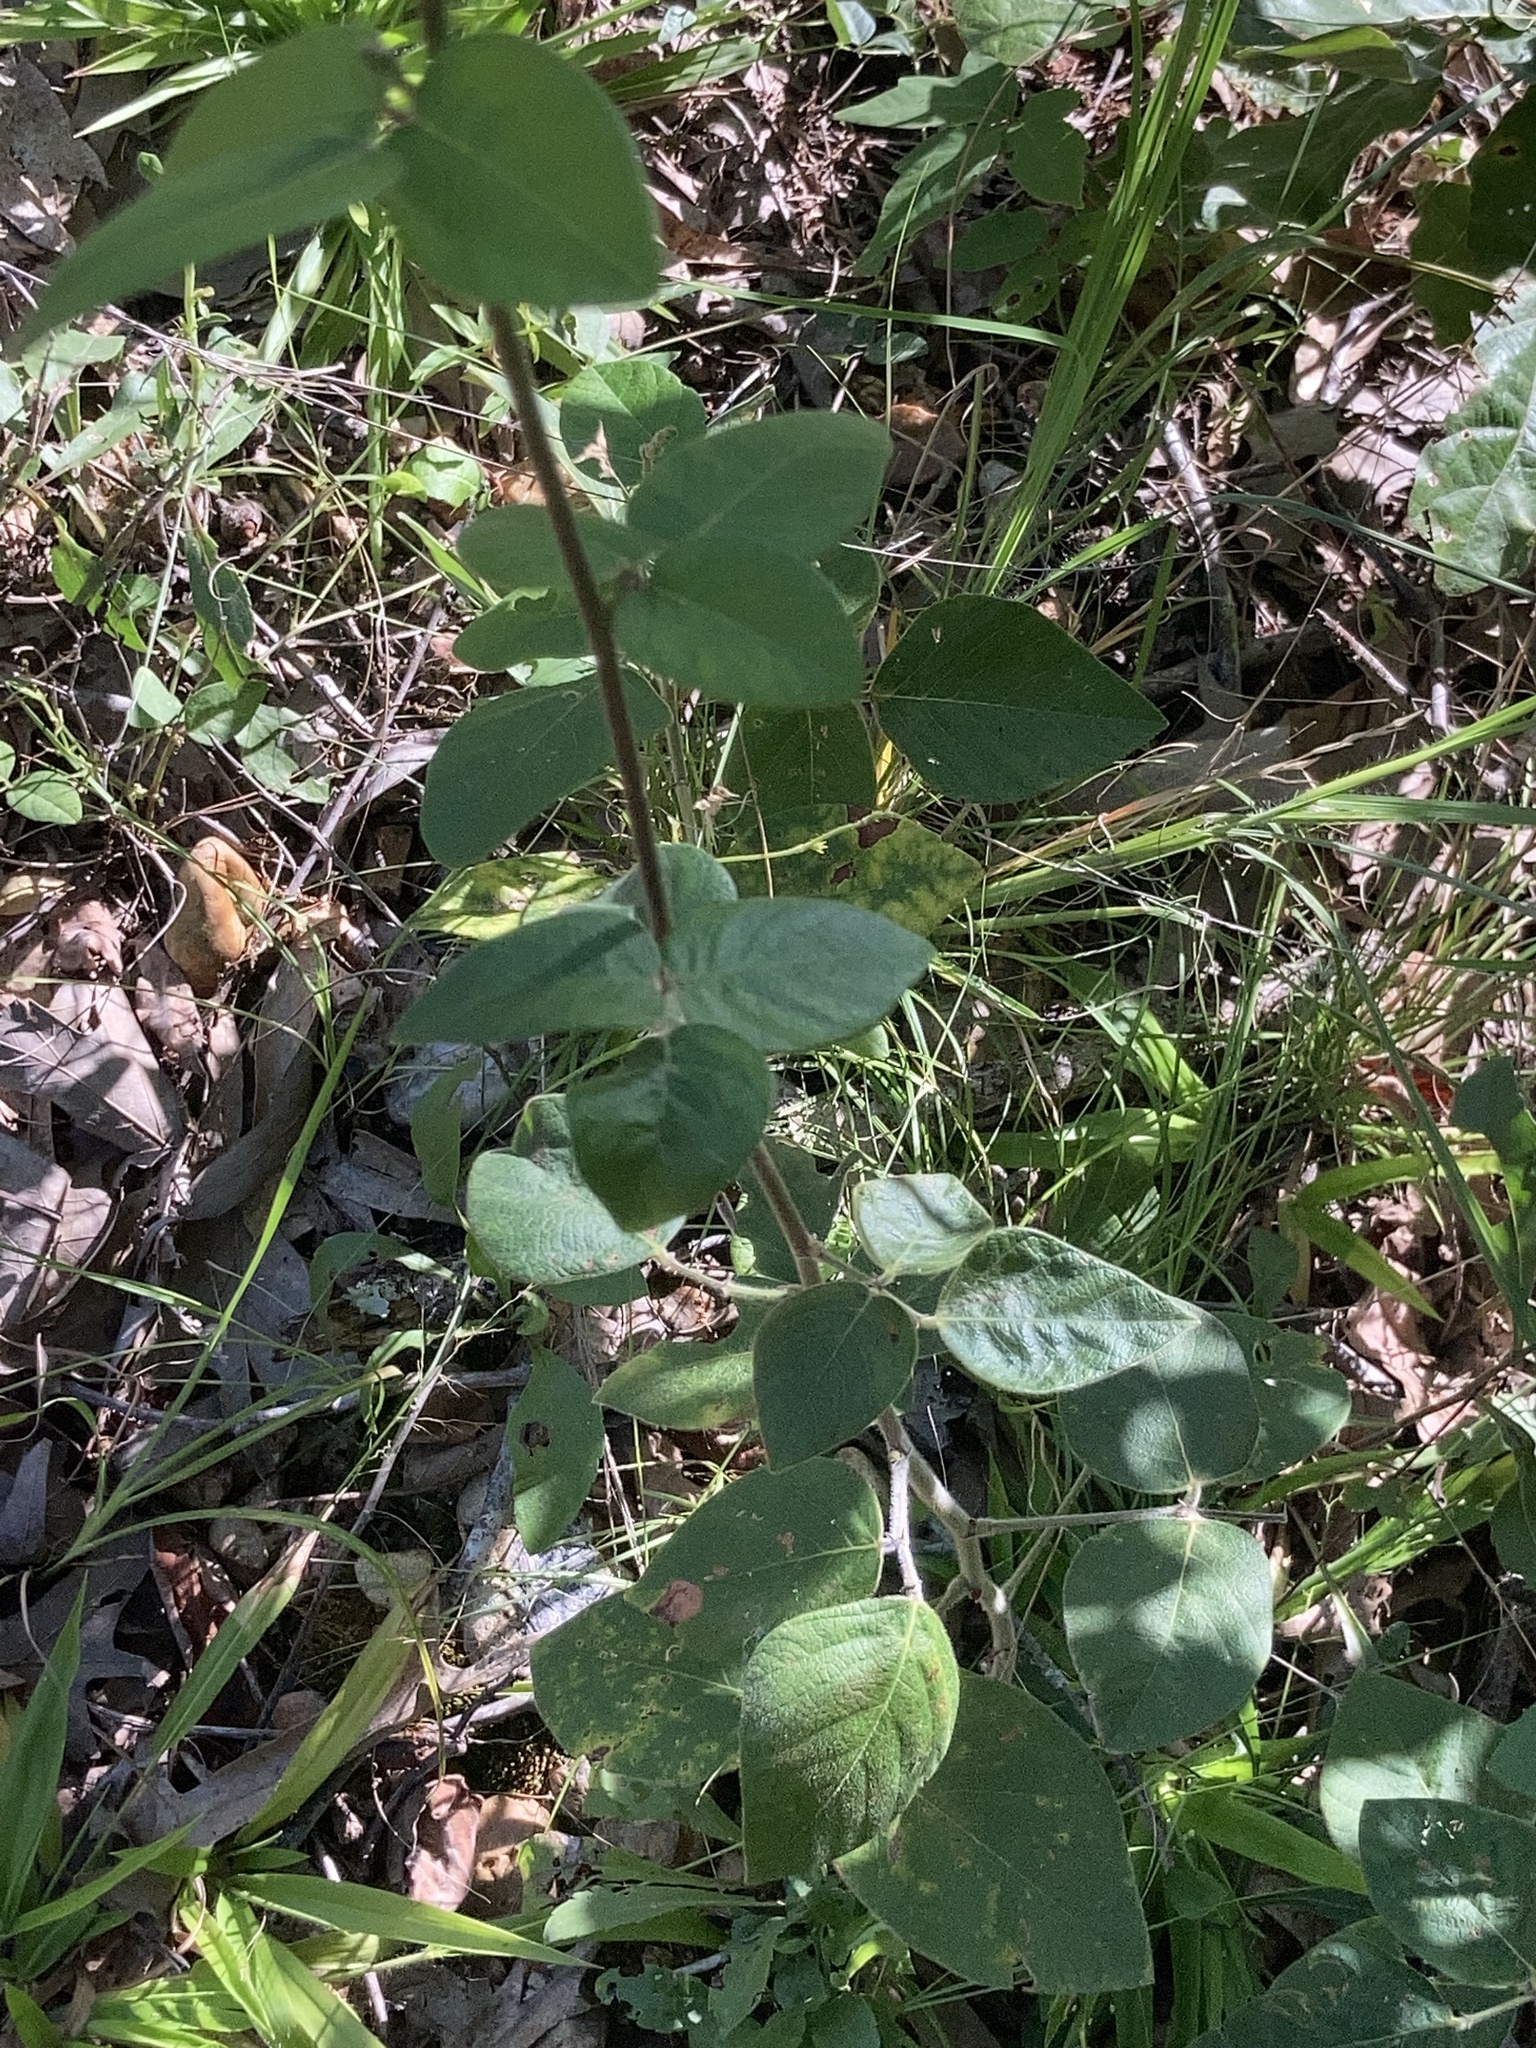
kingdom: Plantae
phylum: Tracheophyta
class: Magnoliopsida
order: Fabales
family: Fabaceae
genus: Desmodium
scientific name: Desmodium nuttallii
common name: Nuttall's tick trefoil
